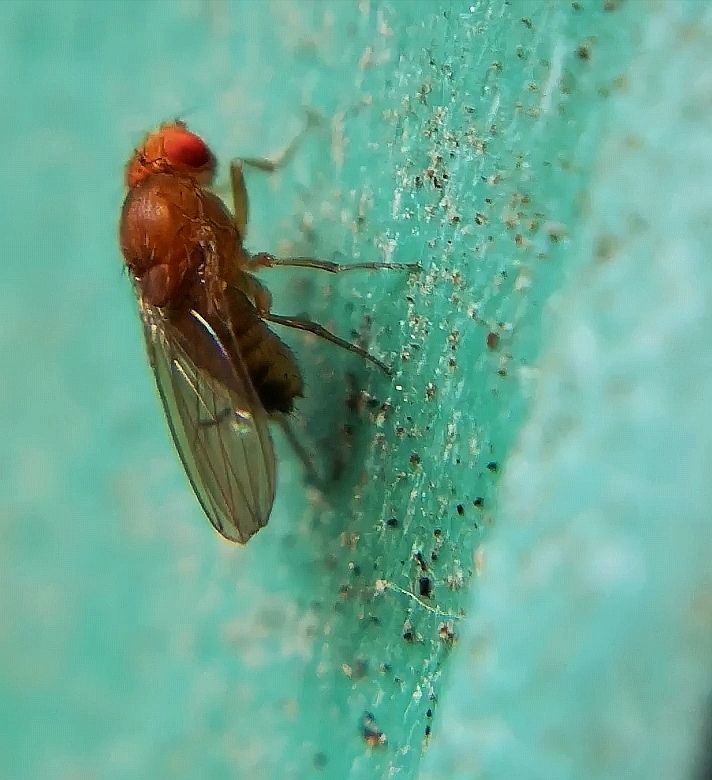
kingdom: Animalia
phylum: Arthropoda
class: Insecta
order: Diptera
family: Drosophilidae
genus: Drosophila
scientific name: Drosophila immigrans
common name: Pomace fly
